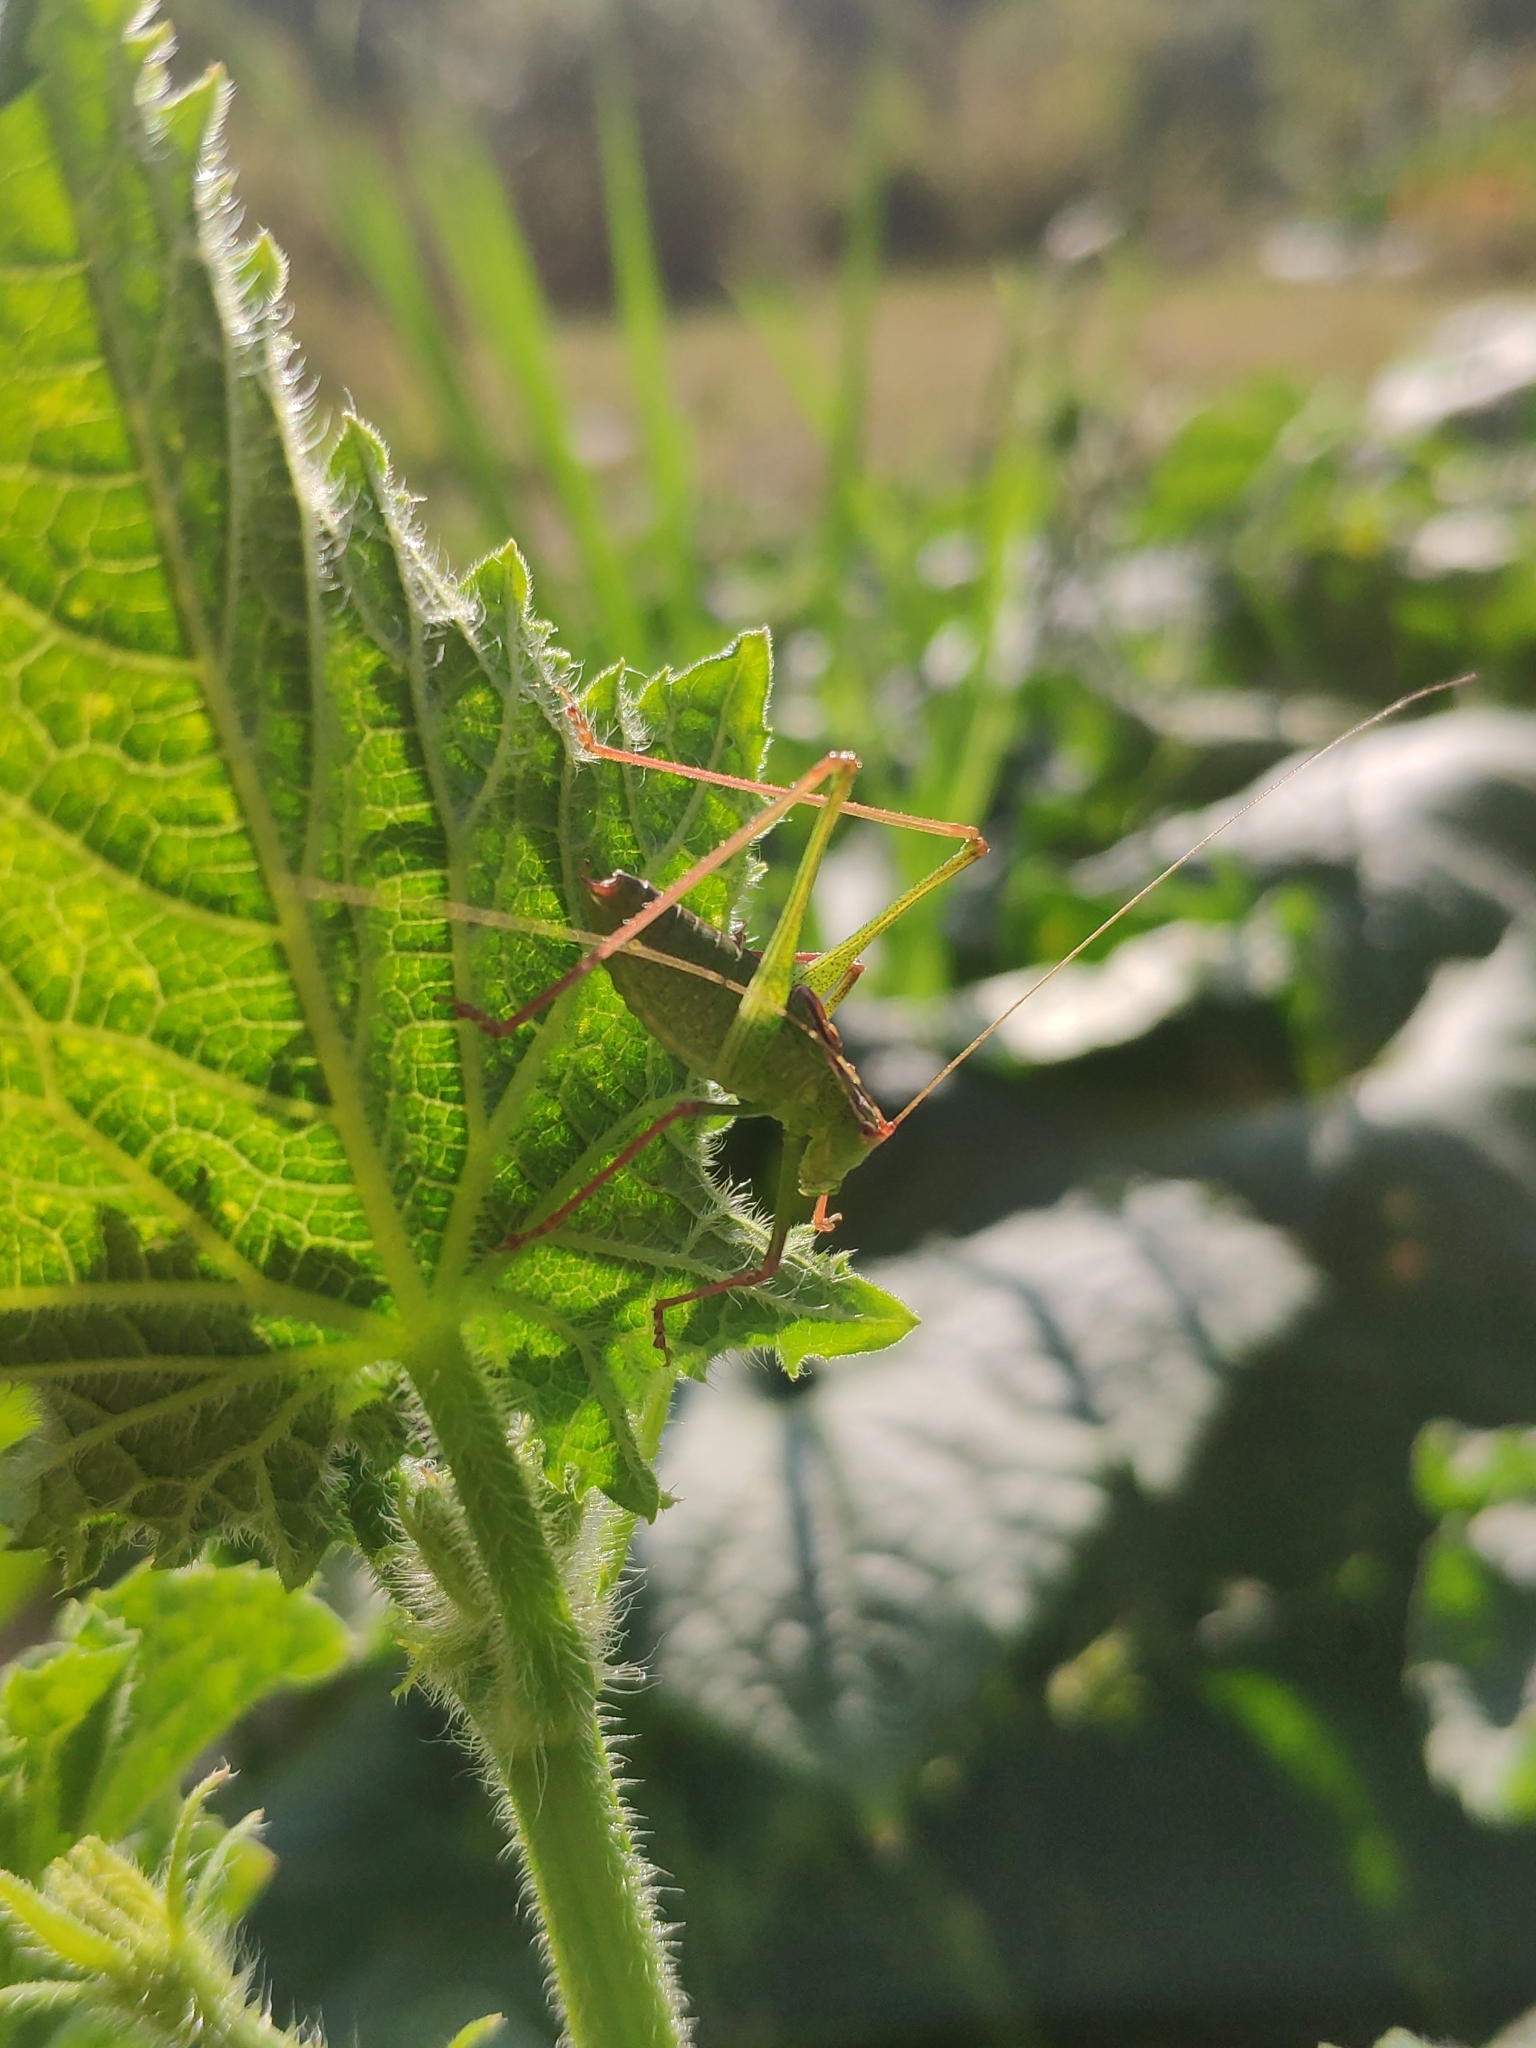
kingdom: Animalia
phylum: Arthropoda
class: Insecta
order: Orthoptera
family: Tettigoniidae
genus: Leptophyes
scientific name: Leptophyes punctatissima
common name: Speckled bush-cricket
